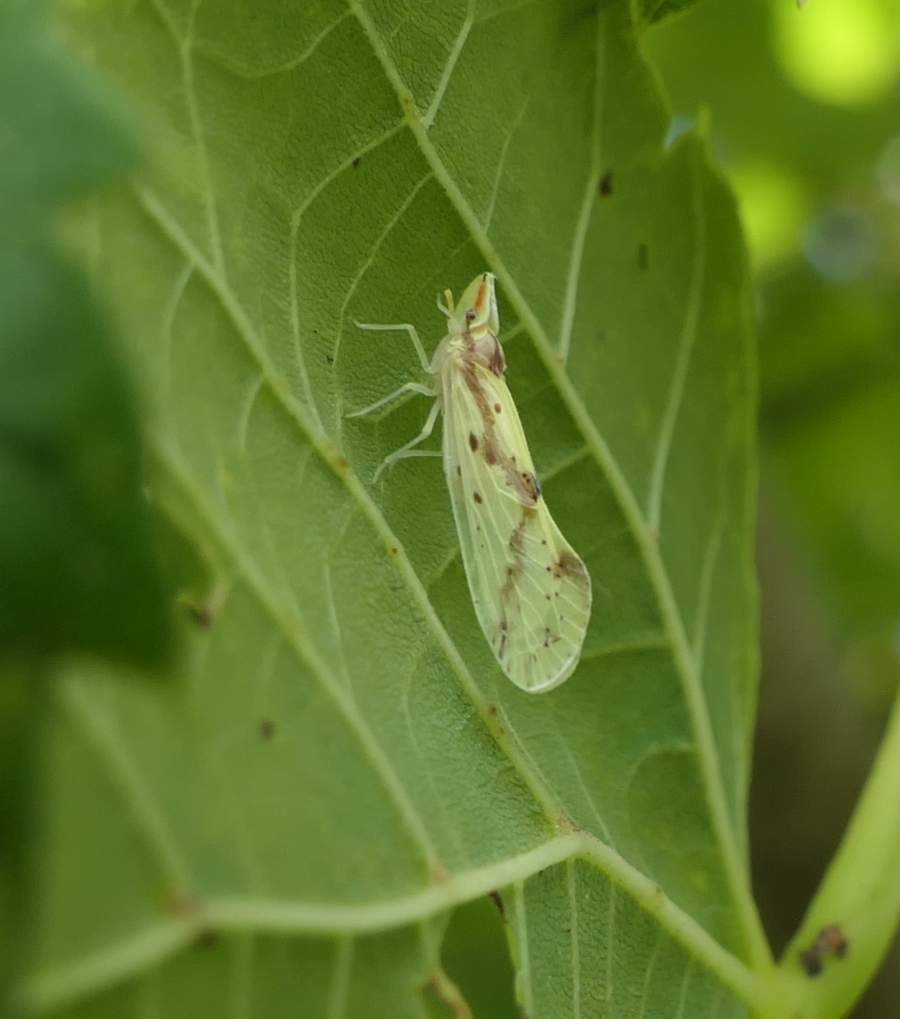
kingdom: Animalia
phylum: Arthropoda
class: Insecta
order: Hemiptera
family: Derbidae
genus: Otiocerus
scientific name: Otiocerus wolfii
